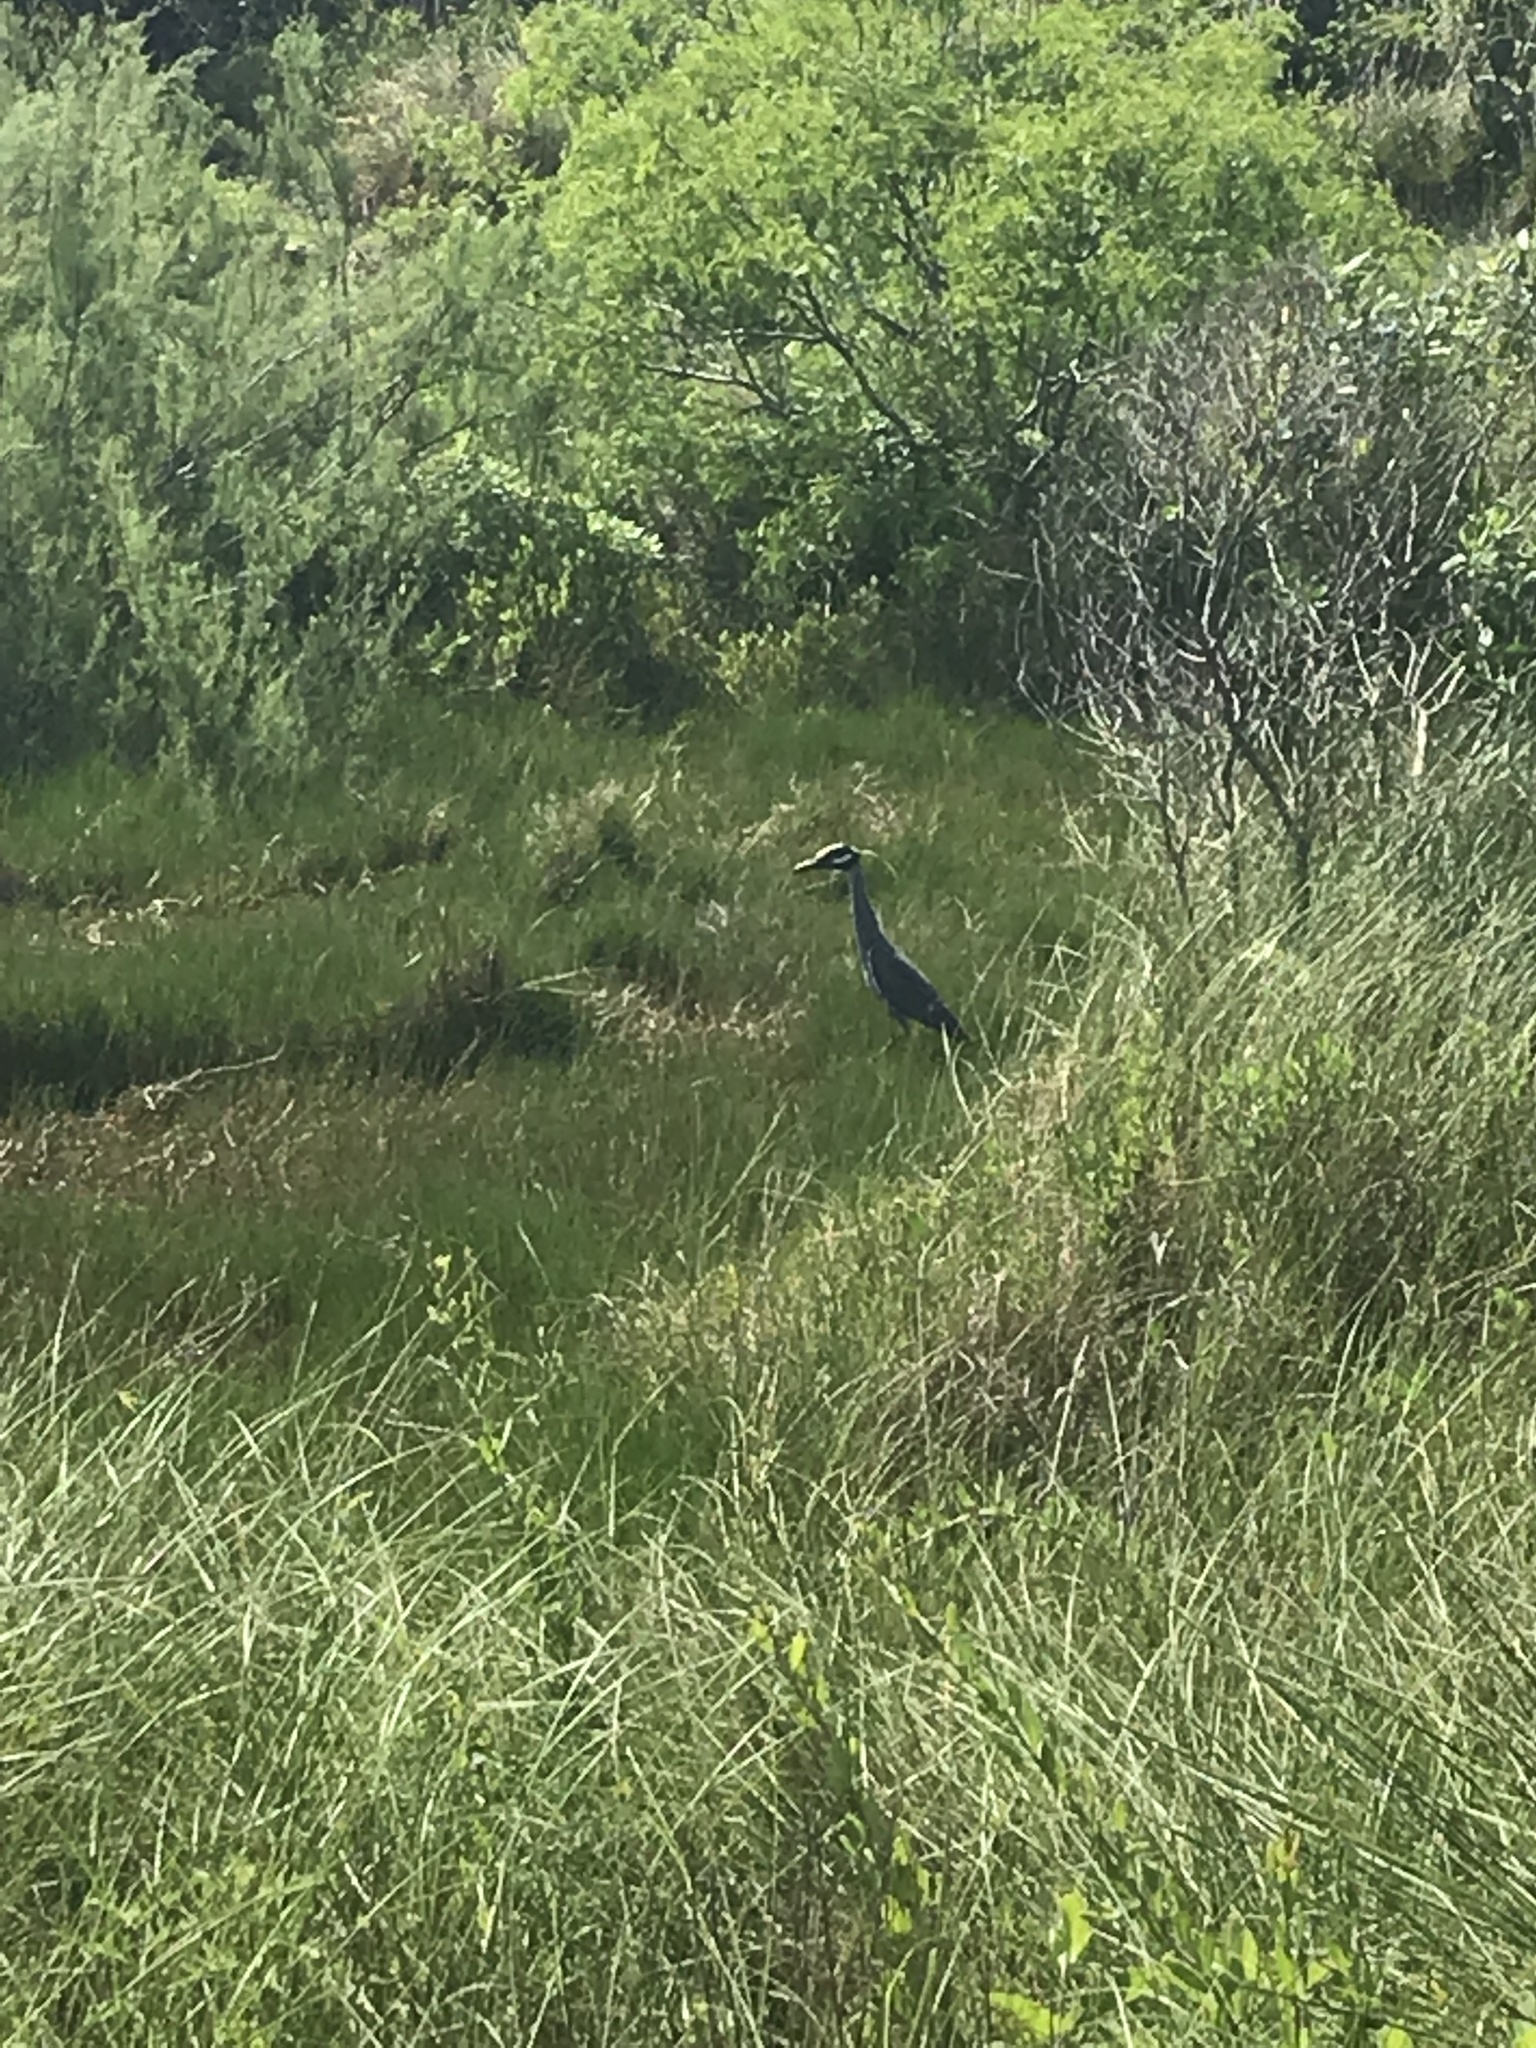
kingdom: Animalia
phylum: Chordata
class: Aves
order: Pelecaniformes
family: Ardeidae
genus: Nyctanassa
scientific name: Nyctanassa violacea
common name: Yellow-crowned night heron
